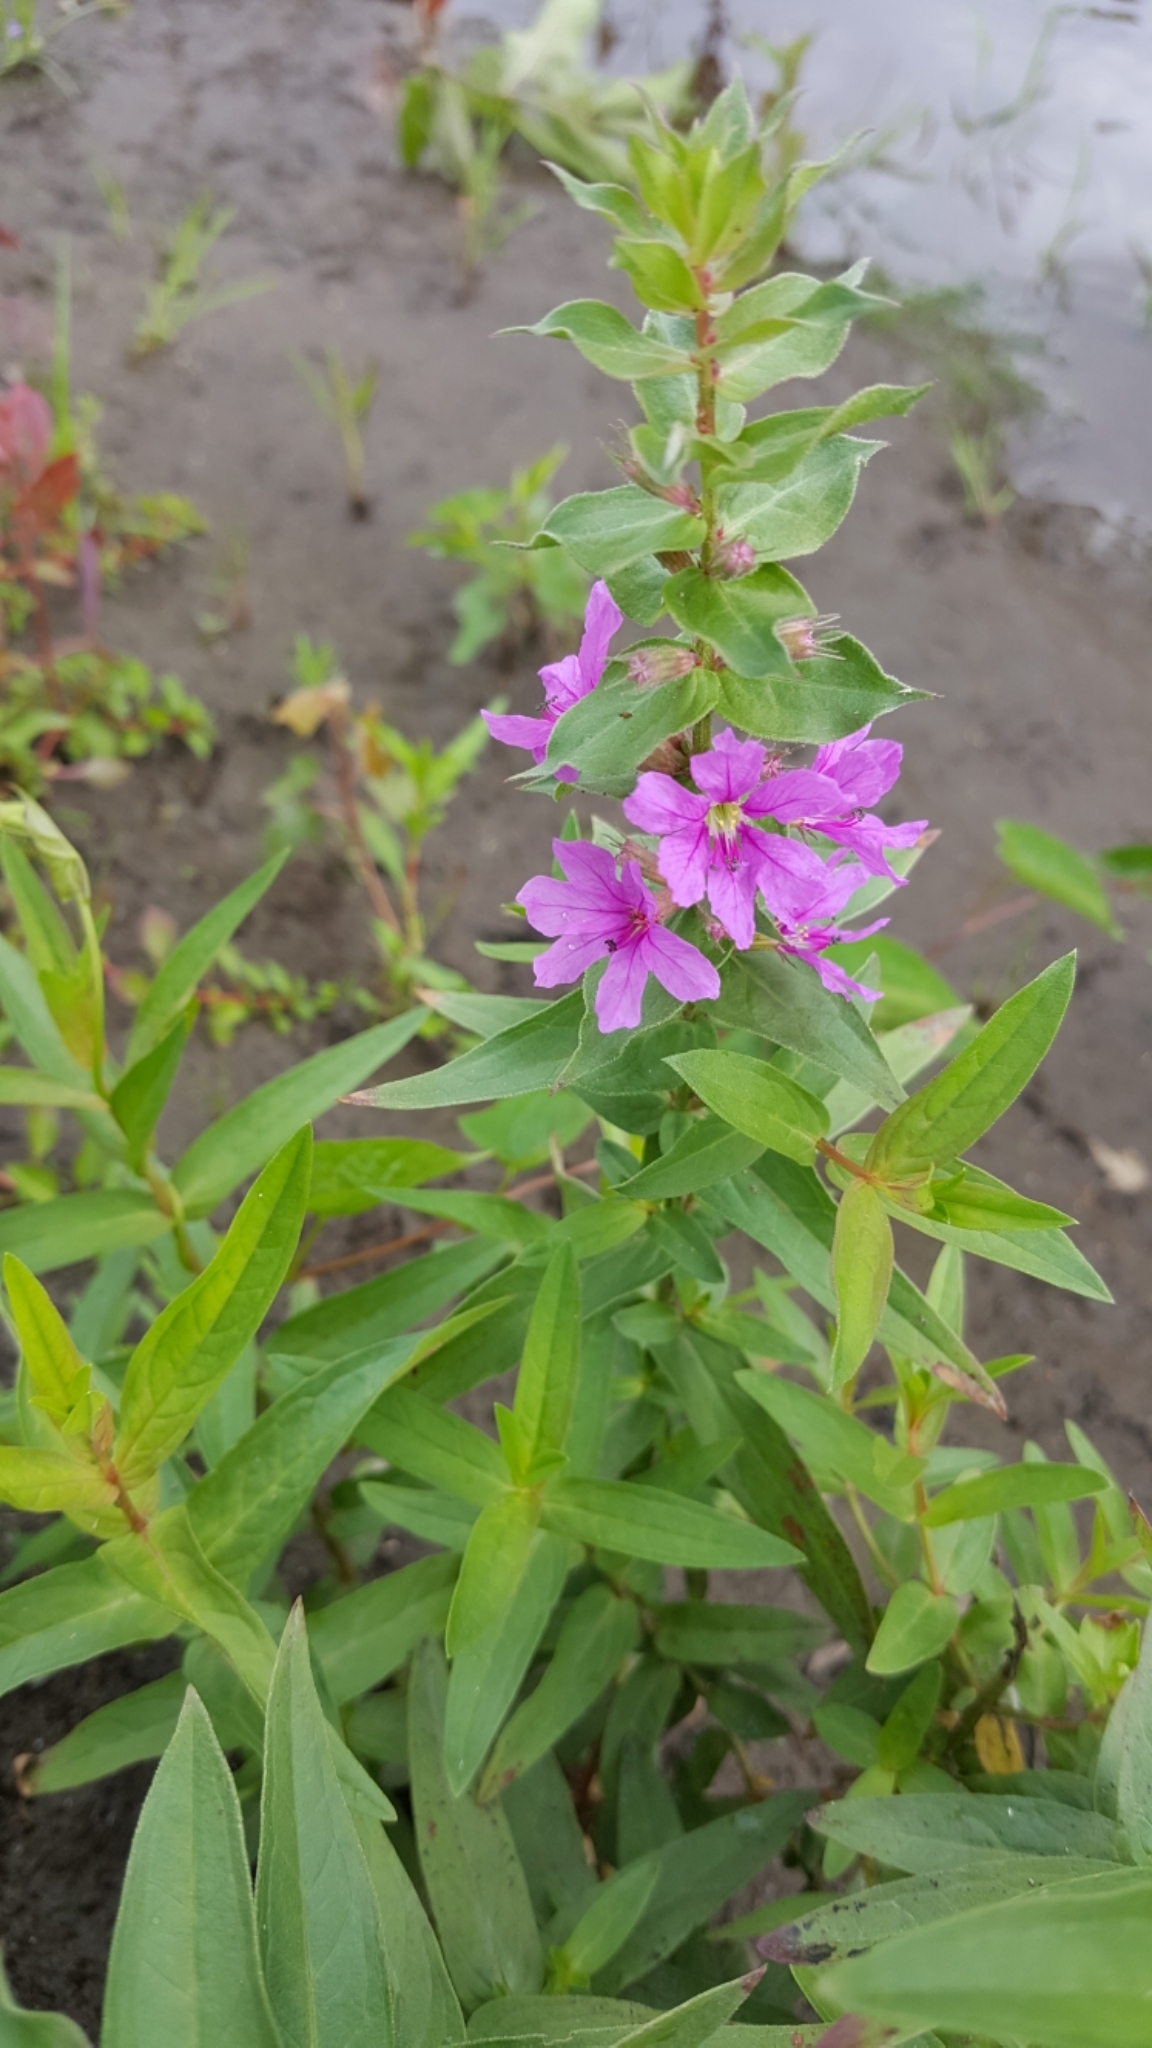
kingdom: Plantae
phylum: Tracheophyta
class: Magnoliopsida
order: Myrtales
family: Lythraceae
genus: Lythrum
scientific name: Lythrum salicaria
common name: Purple loosestrife
